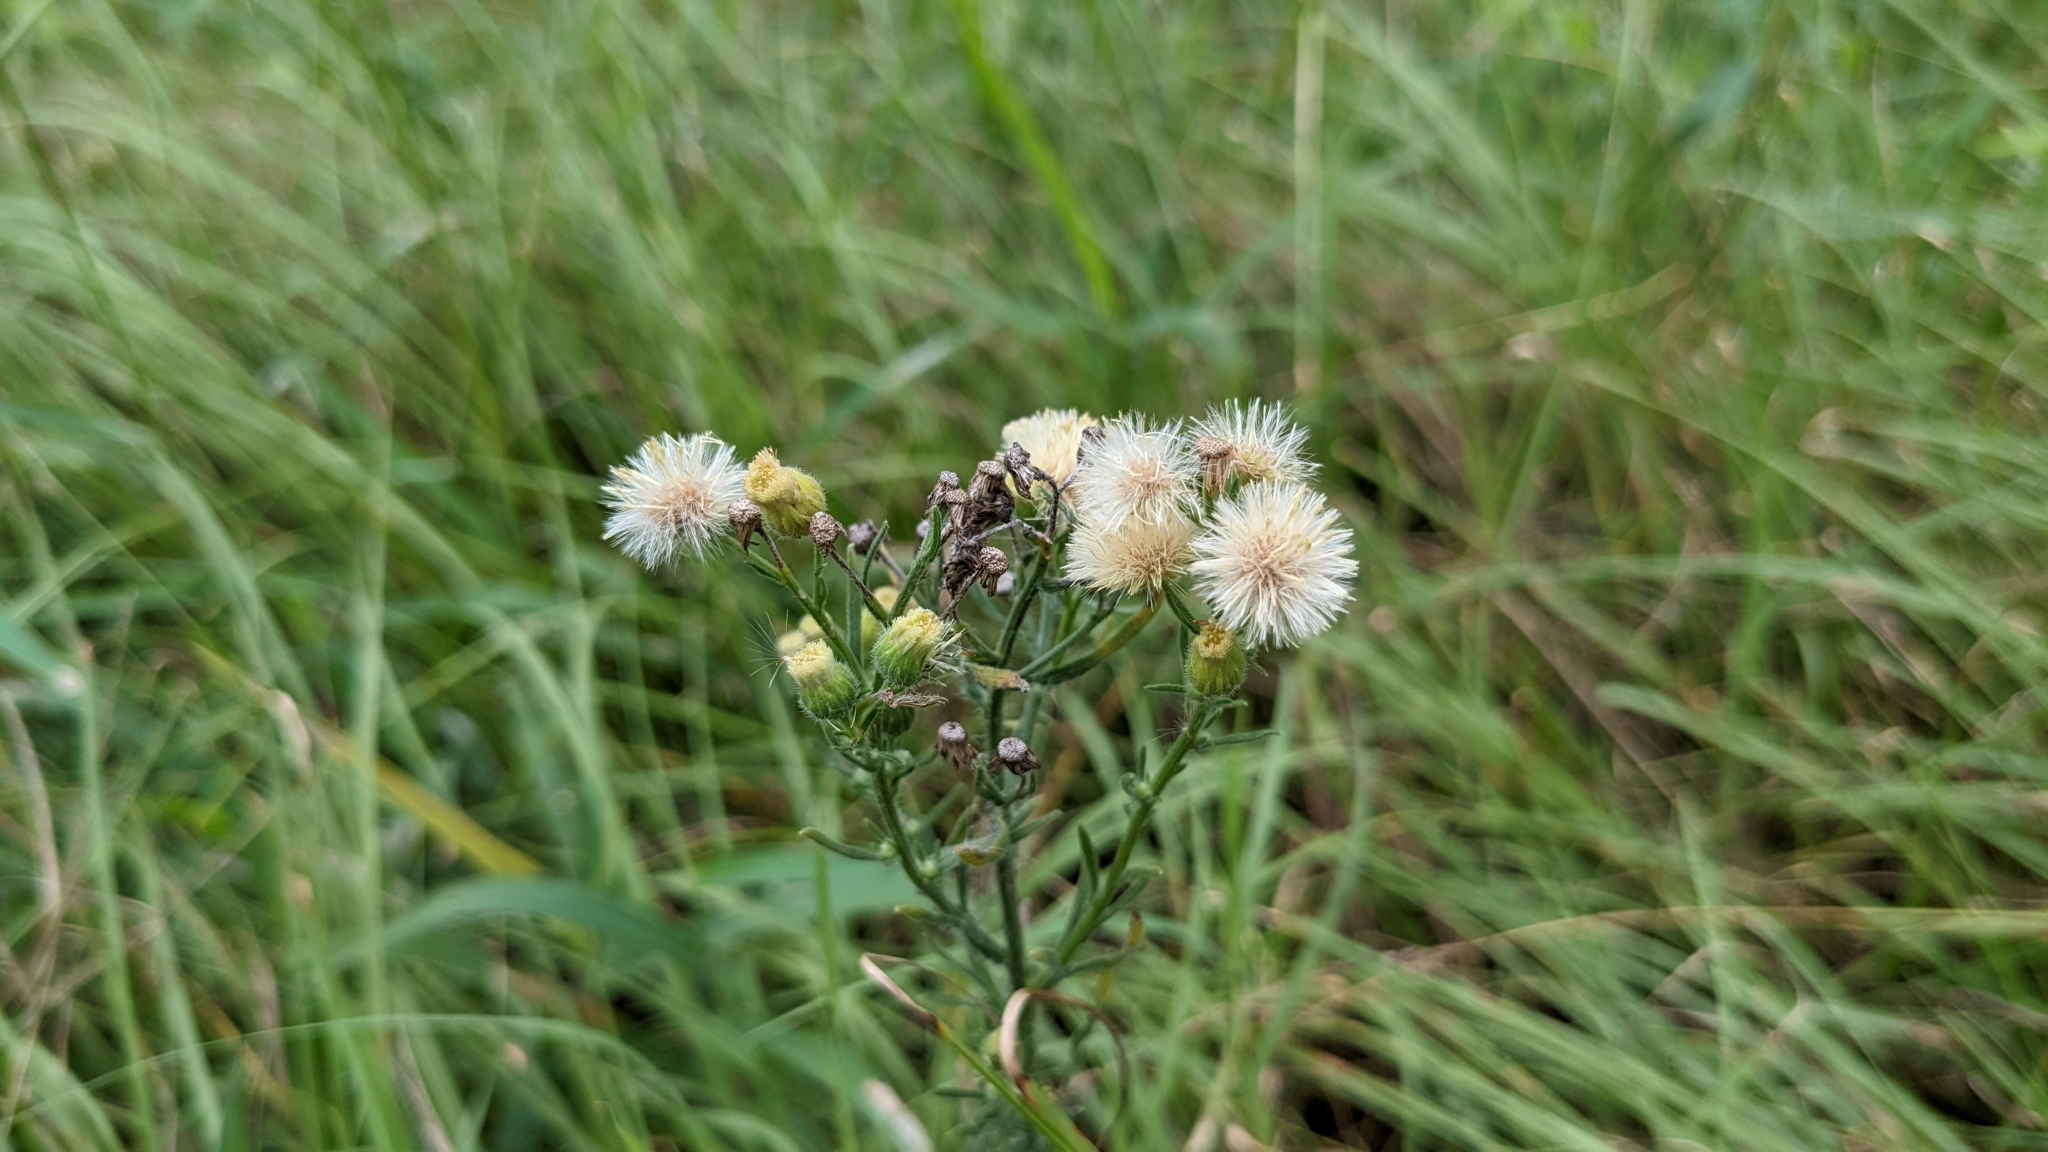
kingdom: Plantae
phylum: Tracheophyta
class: Magnoliopsida
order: Asterales
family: Asteraceae
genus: Erigeron
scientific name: Erigeron bonariensis
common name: Argentine fleabane
